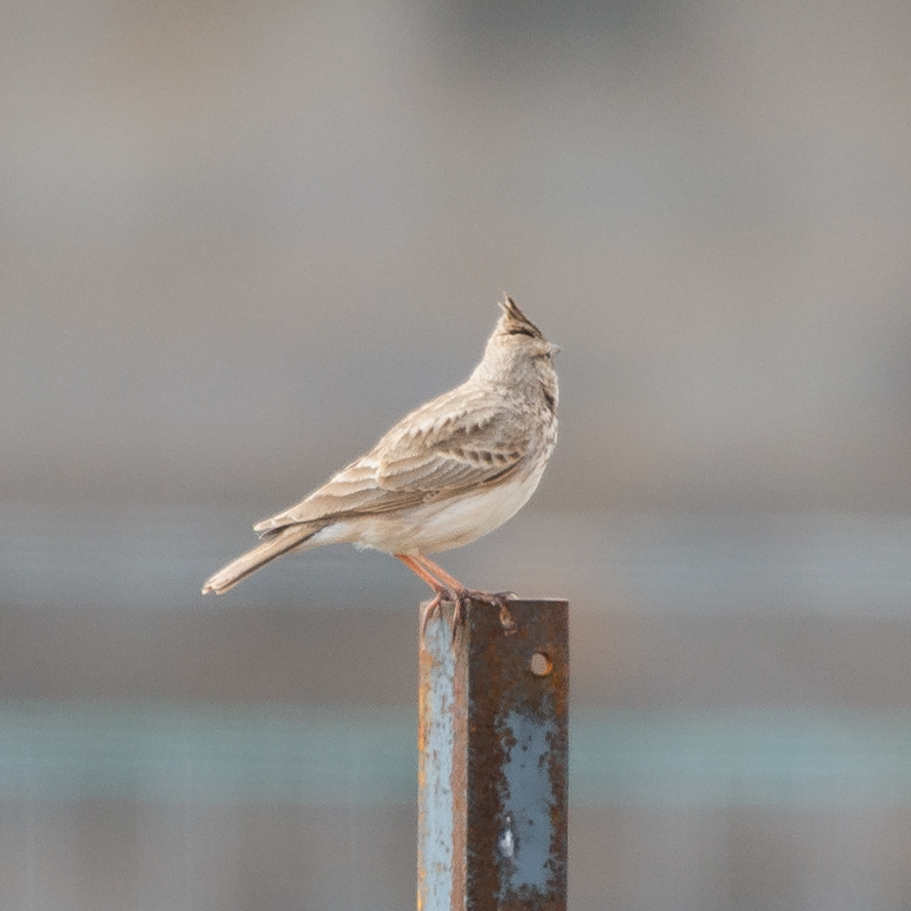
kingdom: Animalia
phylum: Chordata
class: Aves
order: Passeriformes
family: Alaudidae
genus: Galerida
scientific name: Galerida cristata
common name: Crested lark
